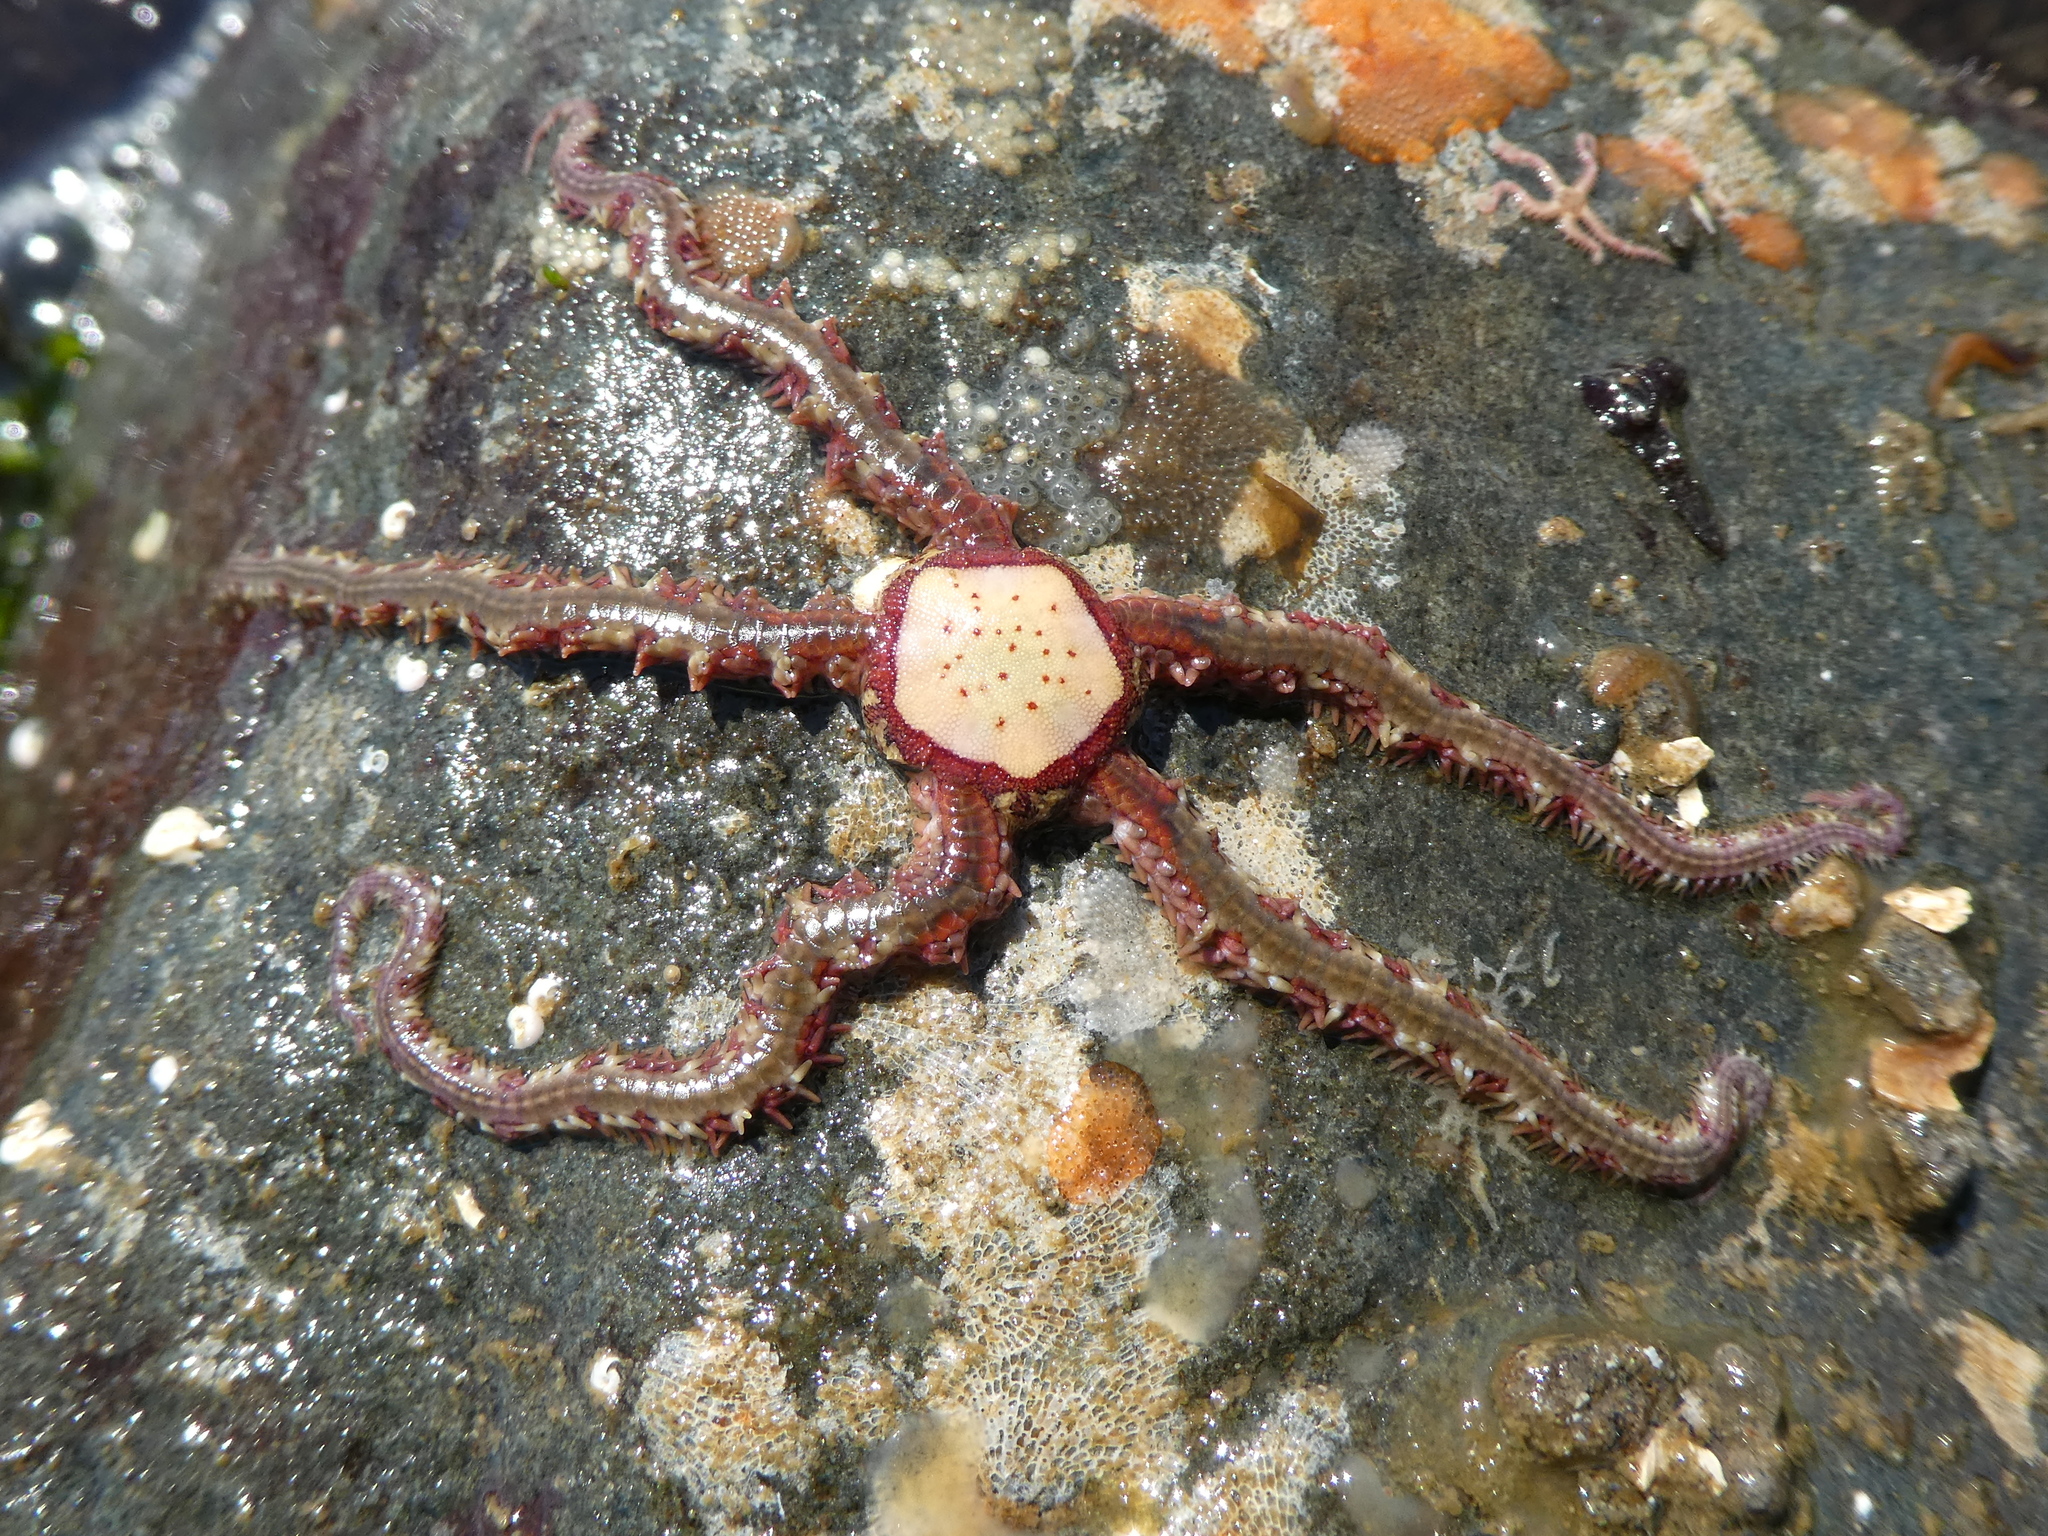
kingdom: Animalia
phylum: Echinodermata
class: Ophiuroidea
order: Amphilepidida
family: Ophiopholidae
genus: Ophiopholis
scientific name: Ophiopholis aculeata
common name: Crevice brittlestar
